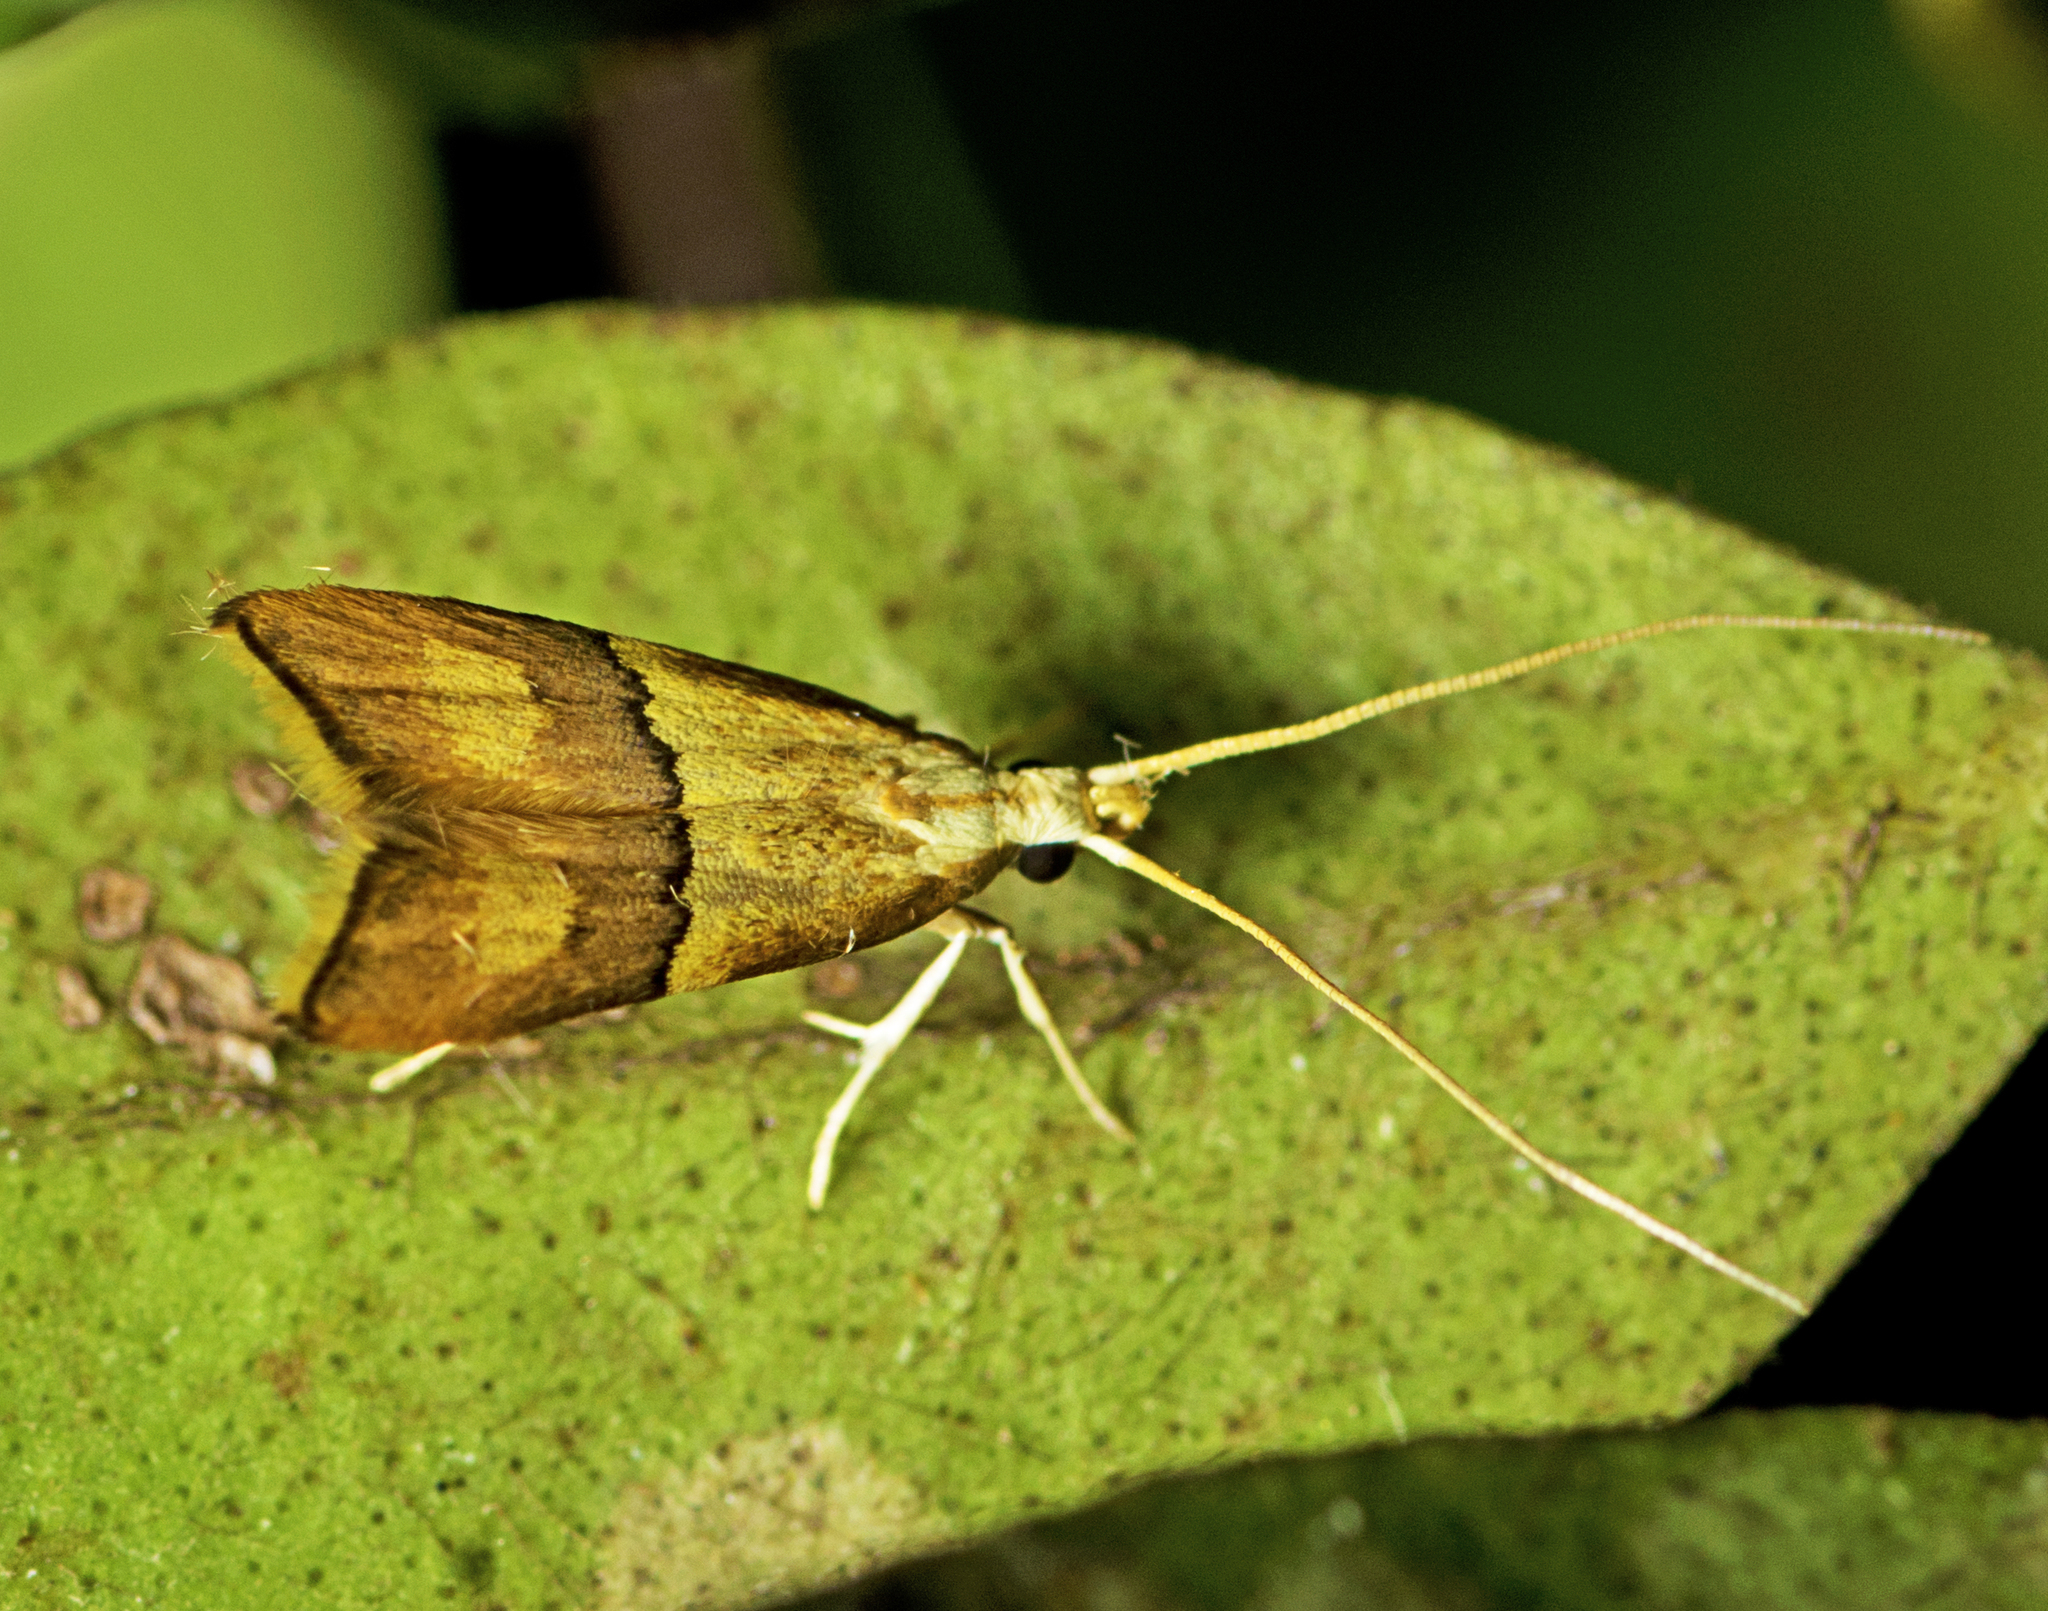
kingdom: Animalia
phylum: Arthropoda
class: Insecta
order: Lepidoptera
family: Lecithoceridae
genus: Crocanthes
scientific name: Crocanthes prasinopis
